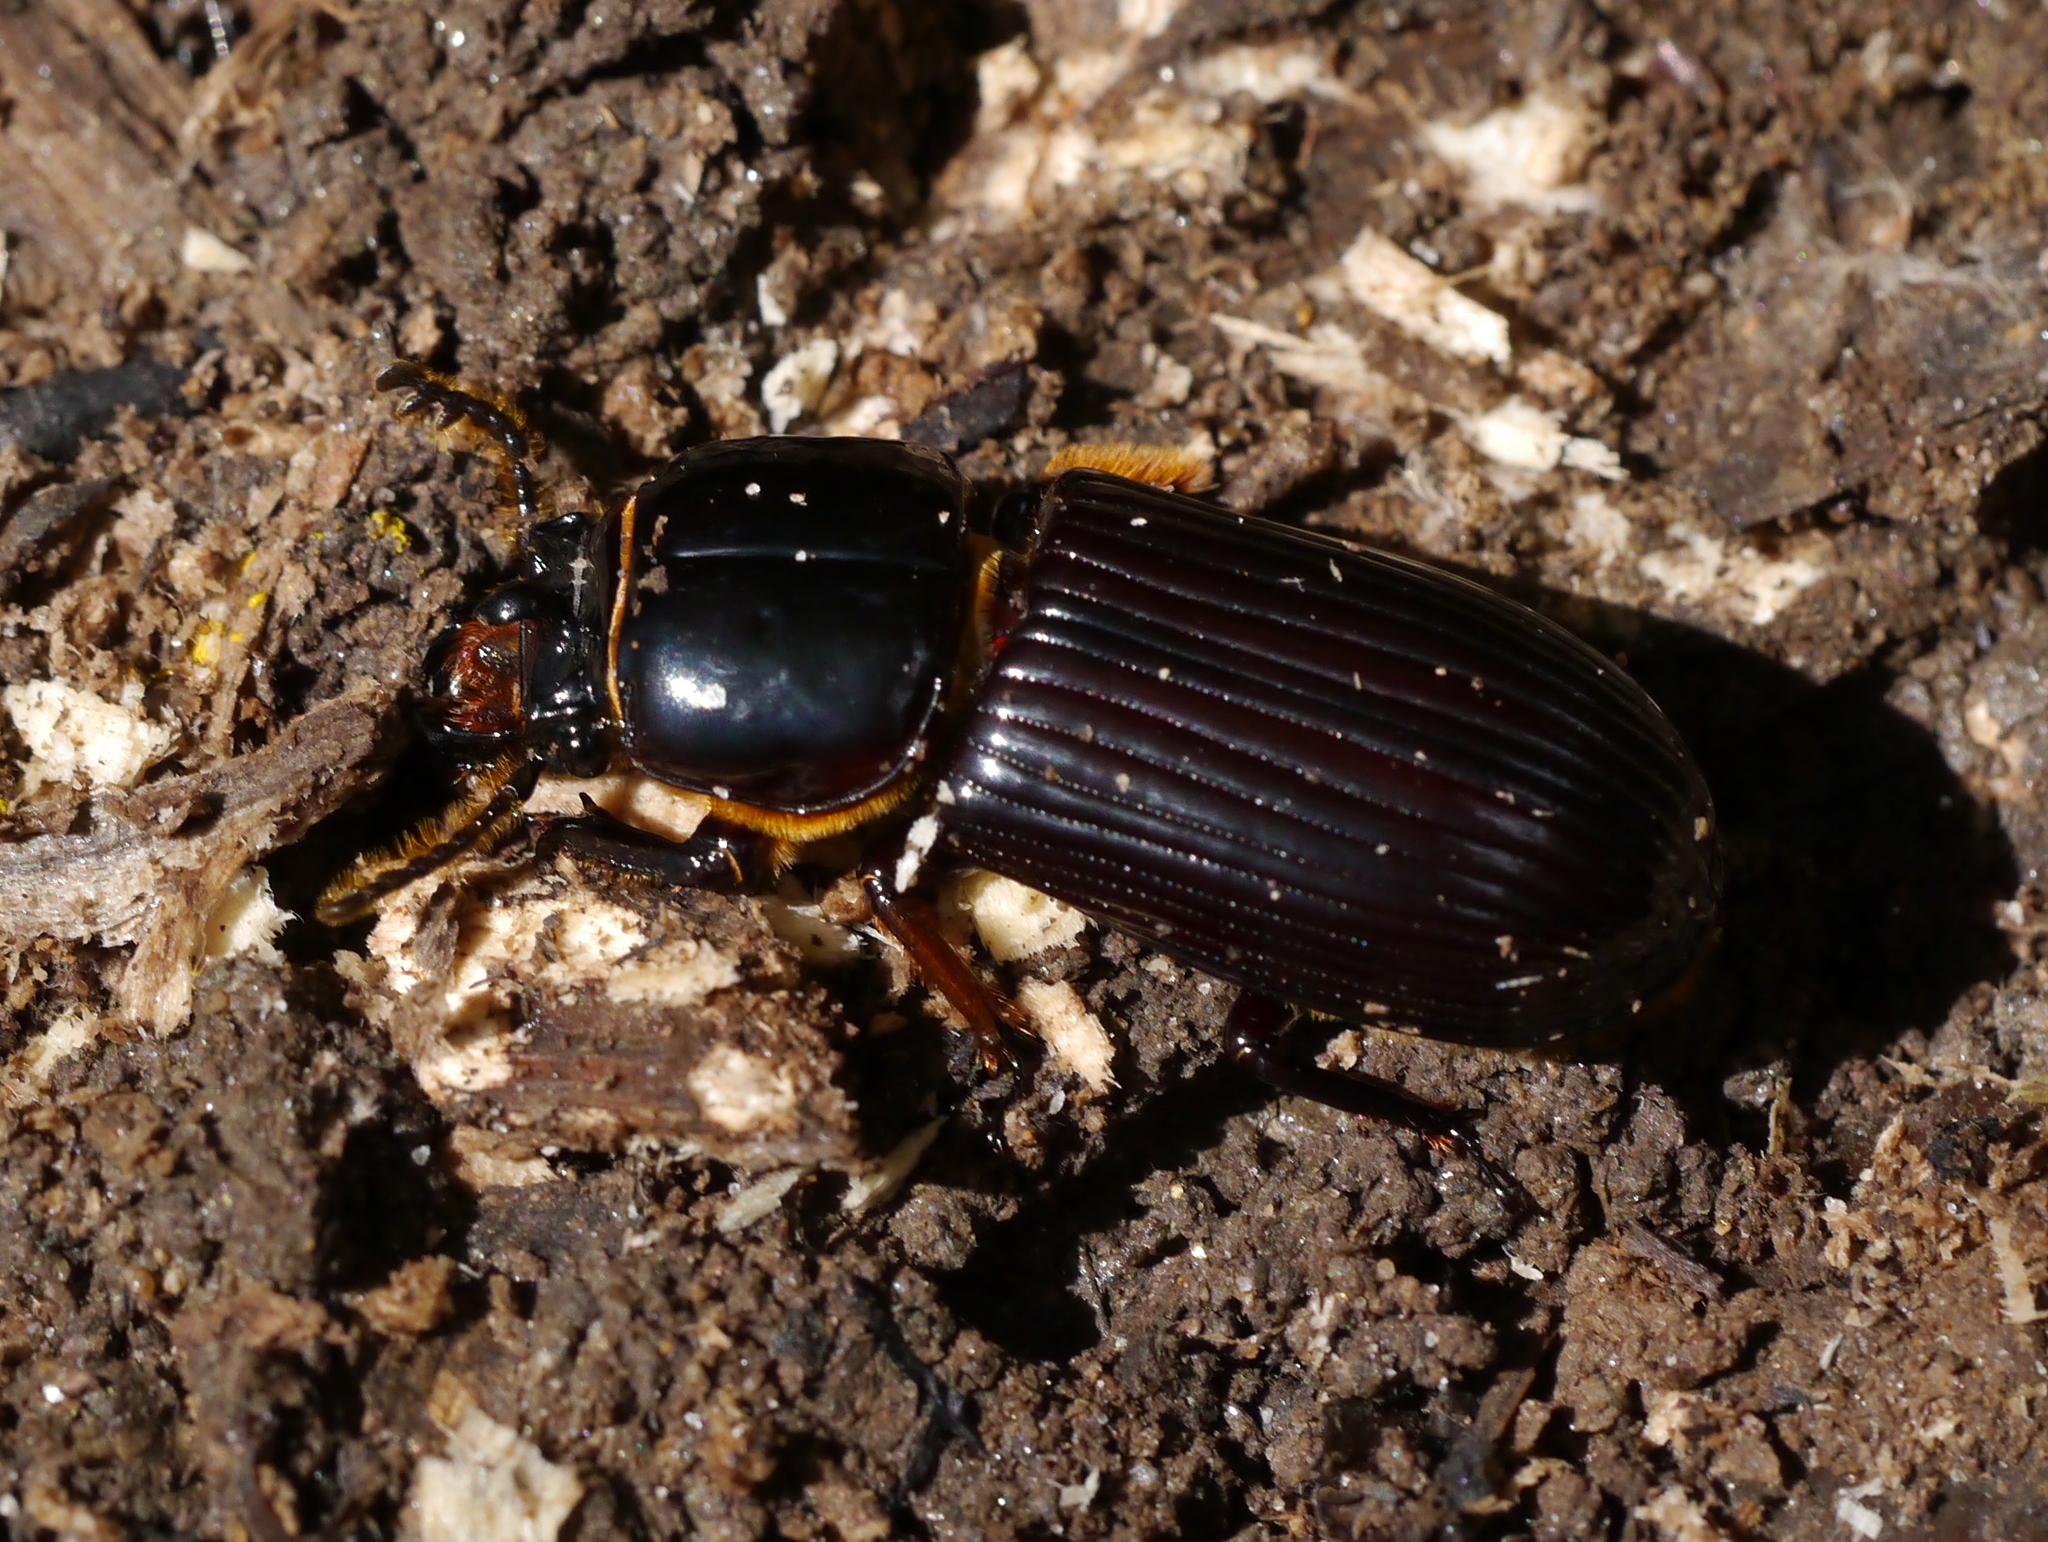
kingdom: Animalia
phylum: Arthropoda
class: Insecta
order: Coleoptera
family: Passalidae
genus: Odontotaenius
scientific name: Odontotaenius disjunctus
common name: Patent leather beetle
